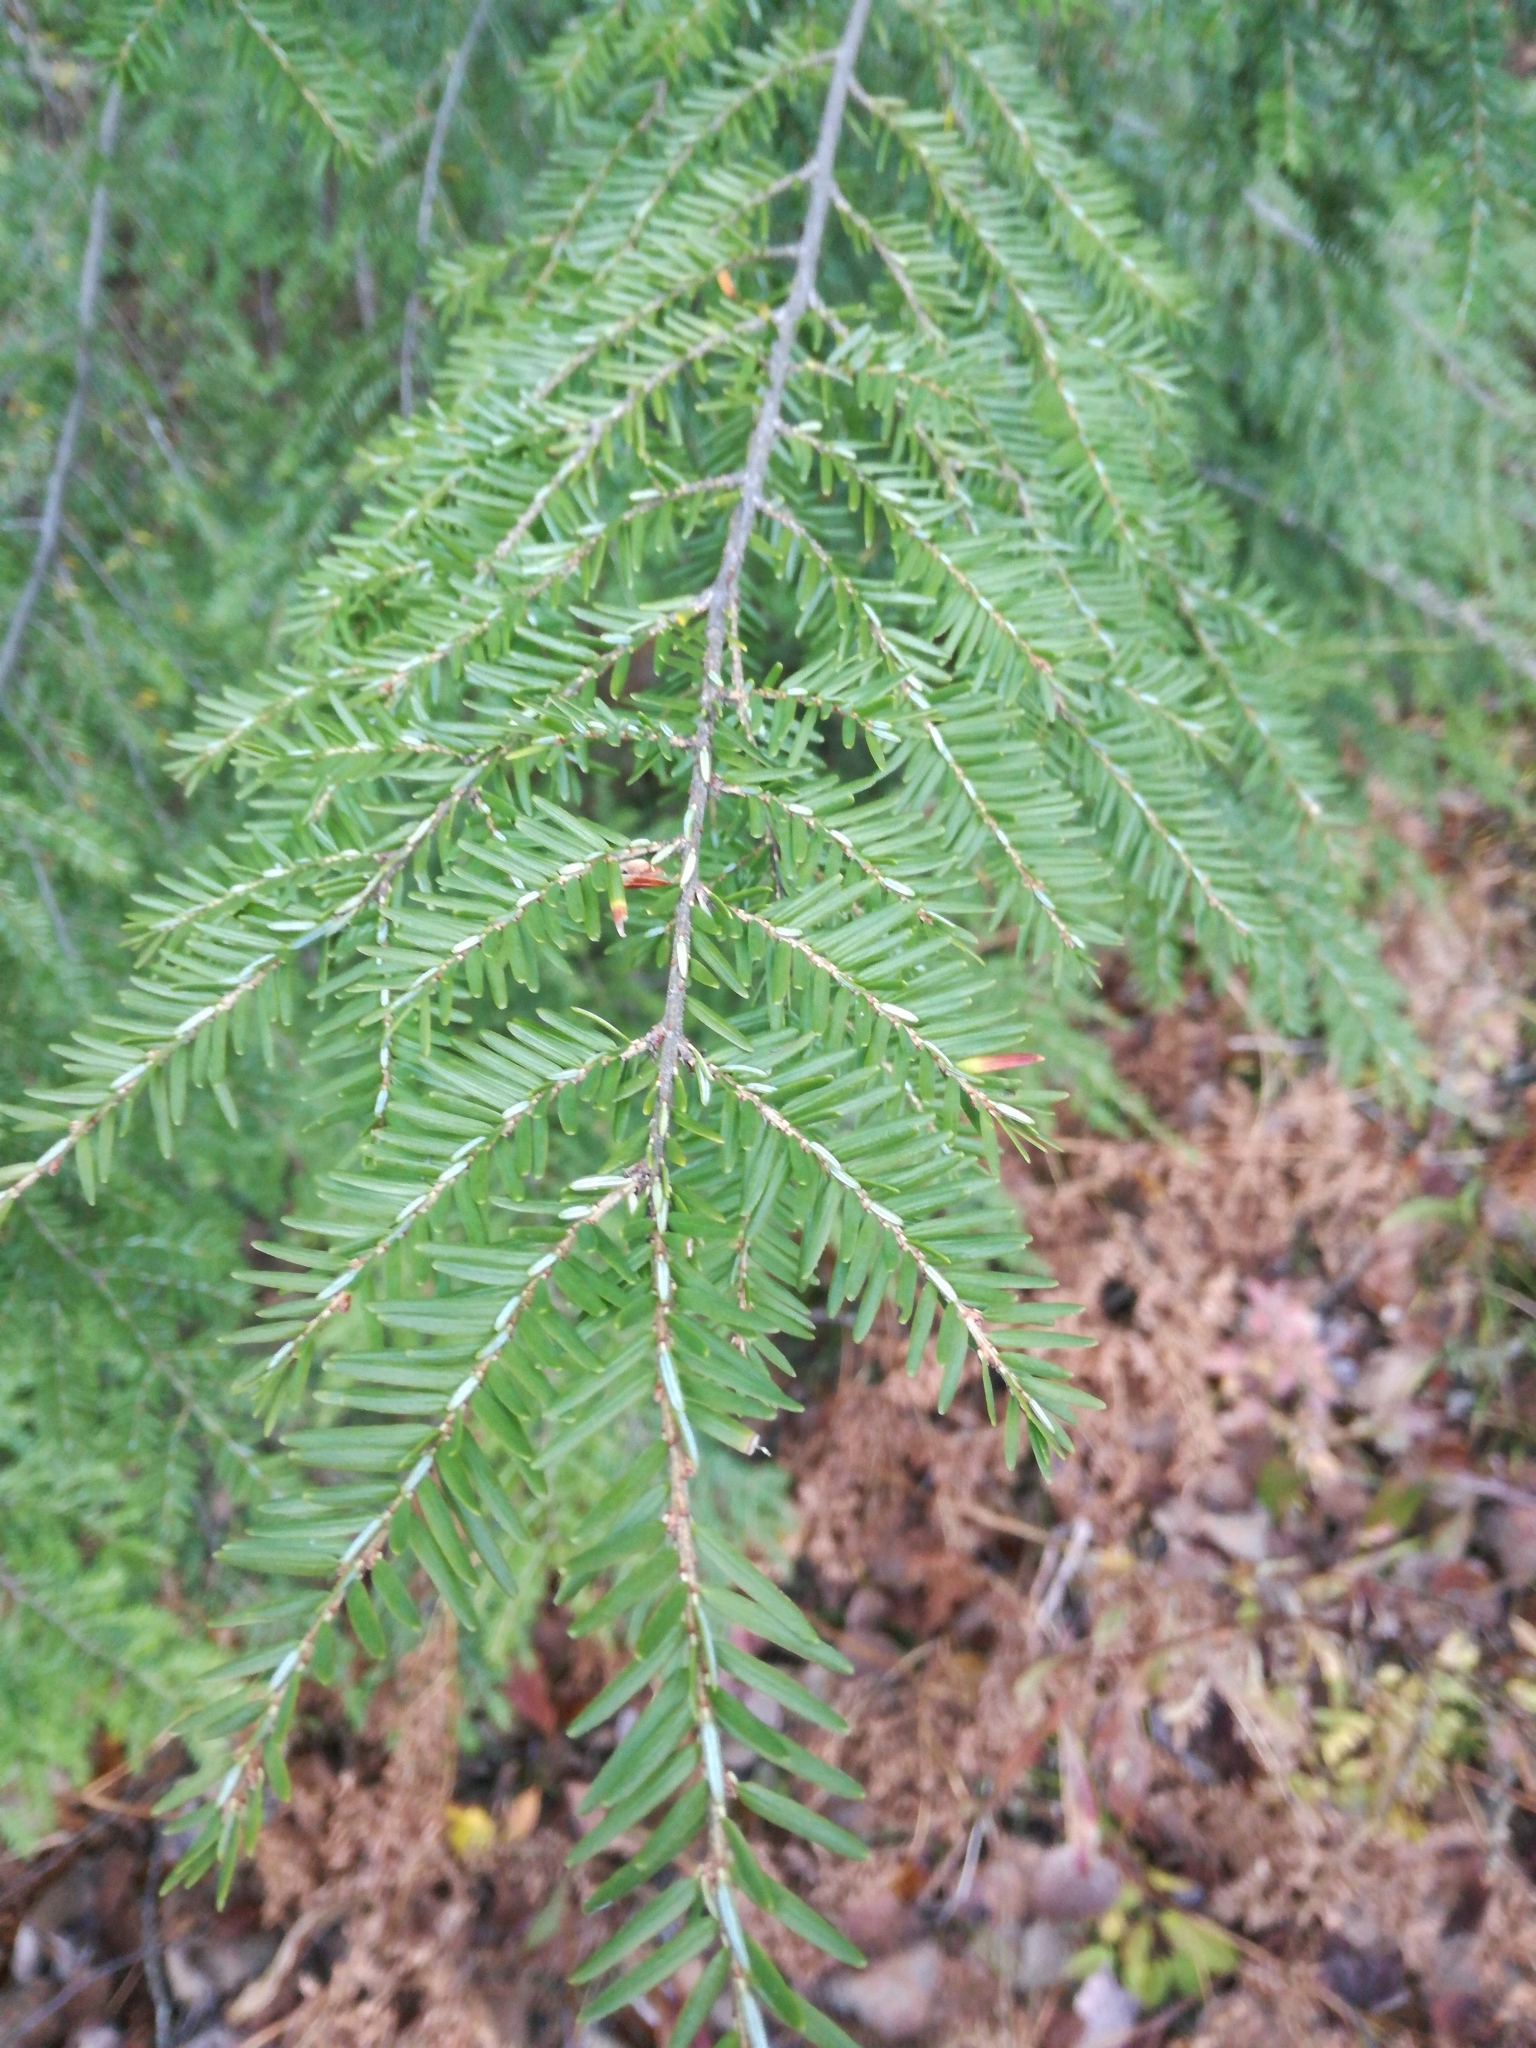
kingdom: Plantae
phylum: Tracheophyta
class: Pinopsida
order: Pinales
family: Pinaceae
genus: Tsuga
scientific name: Tsuga canadensis
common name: Eastern hemlock
